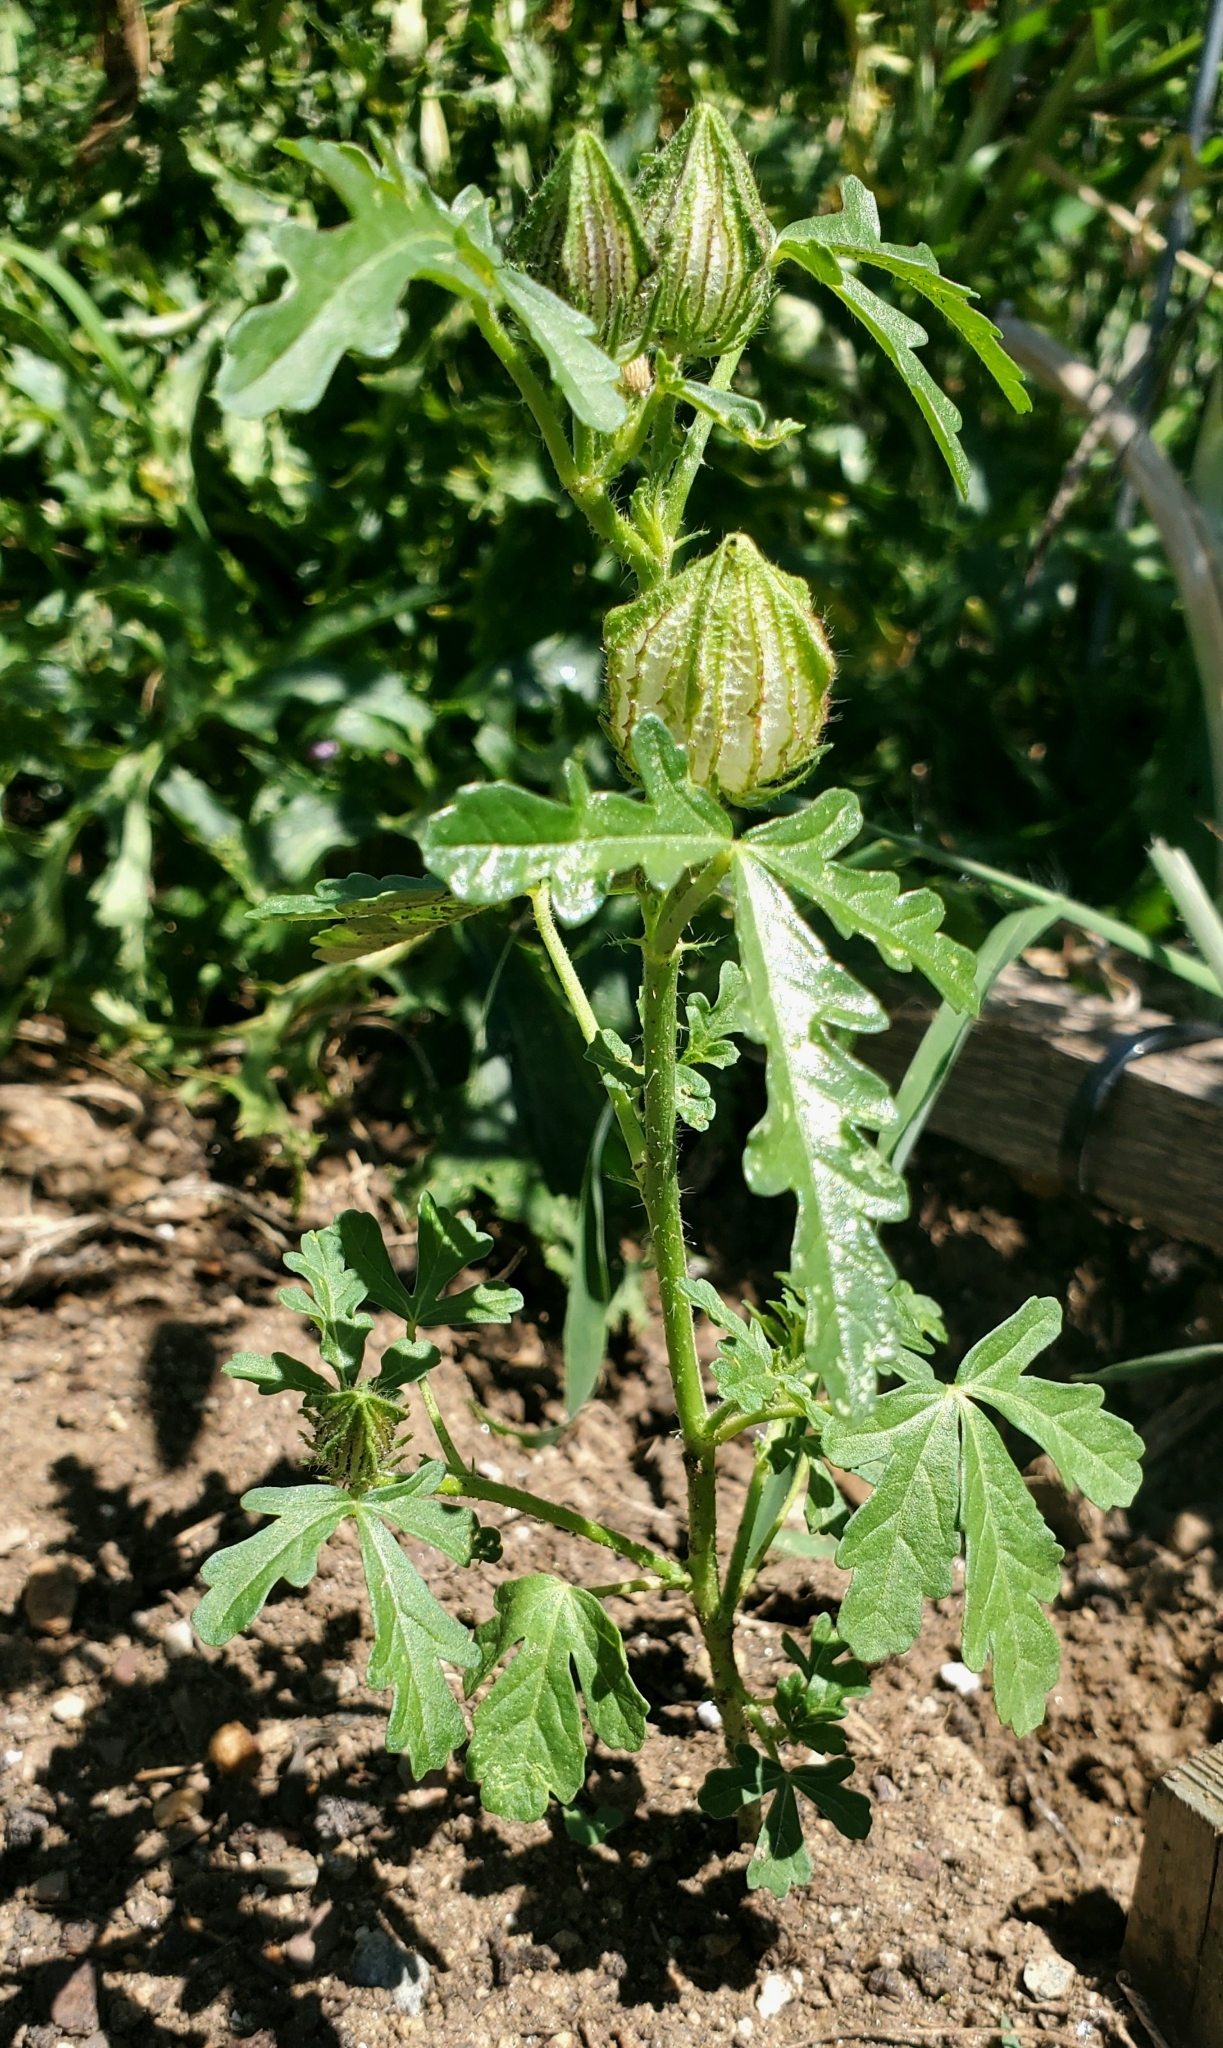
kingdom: Plantae
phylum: Tracheophyta
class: Magnoliopsida
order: Malvales
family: Malvaceae
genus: Hibiscus
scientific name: Hibiscus trionum
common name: Bladder ketmia
